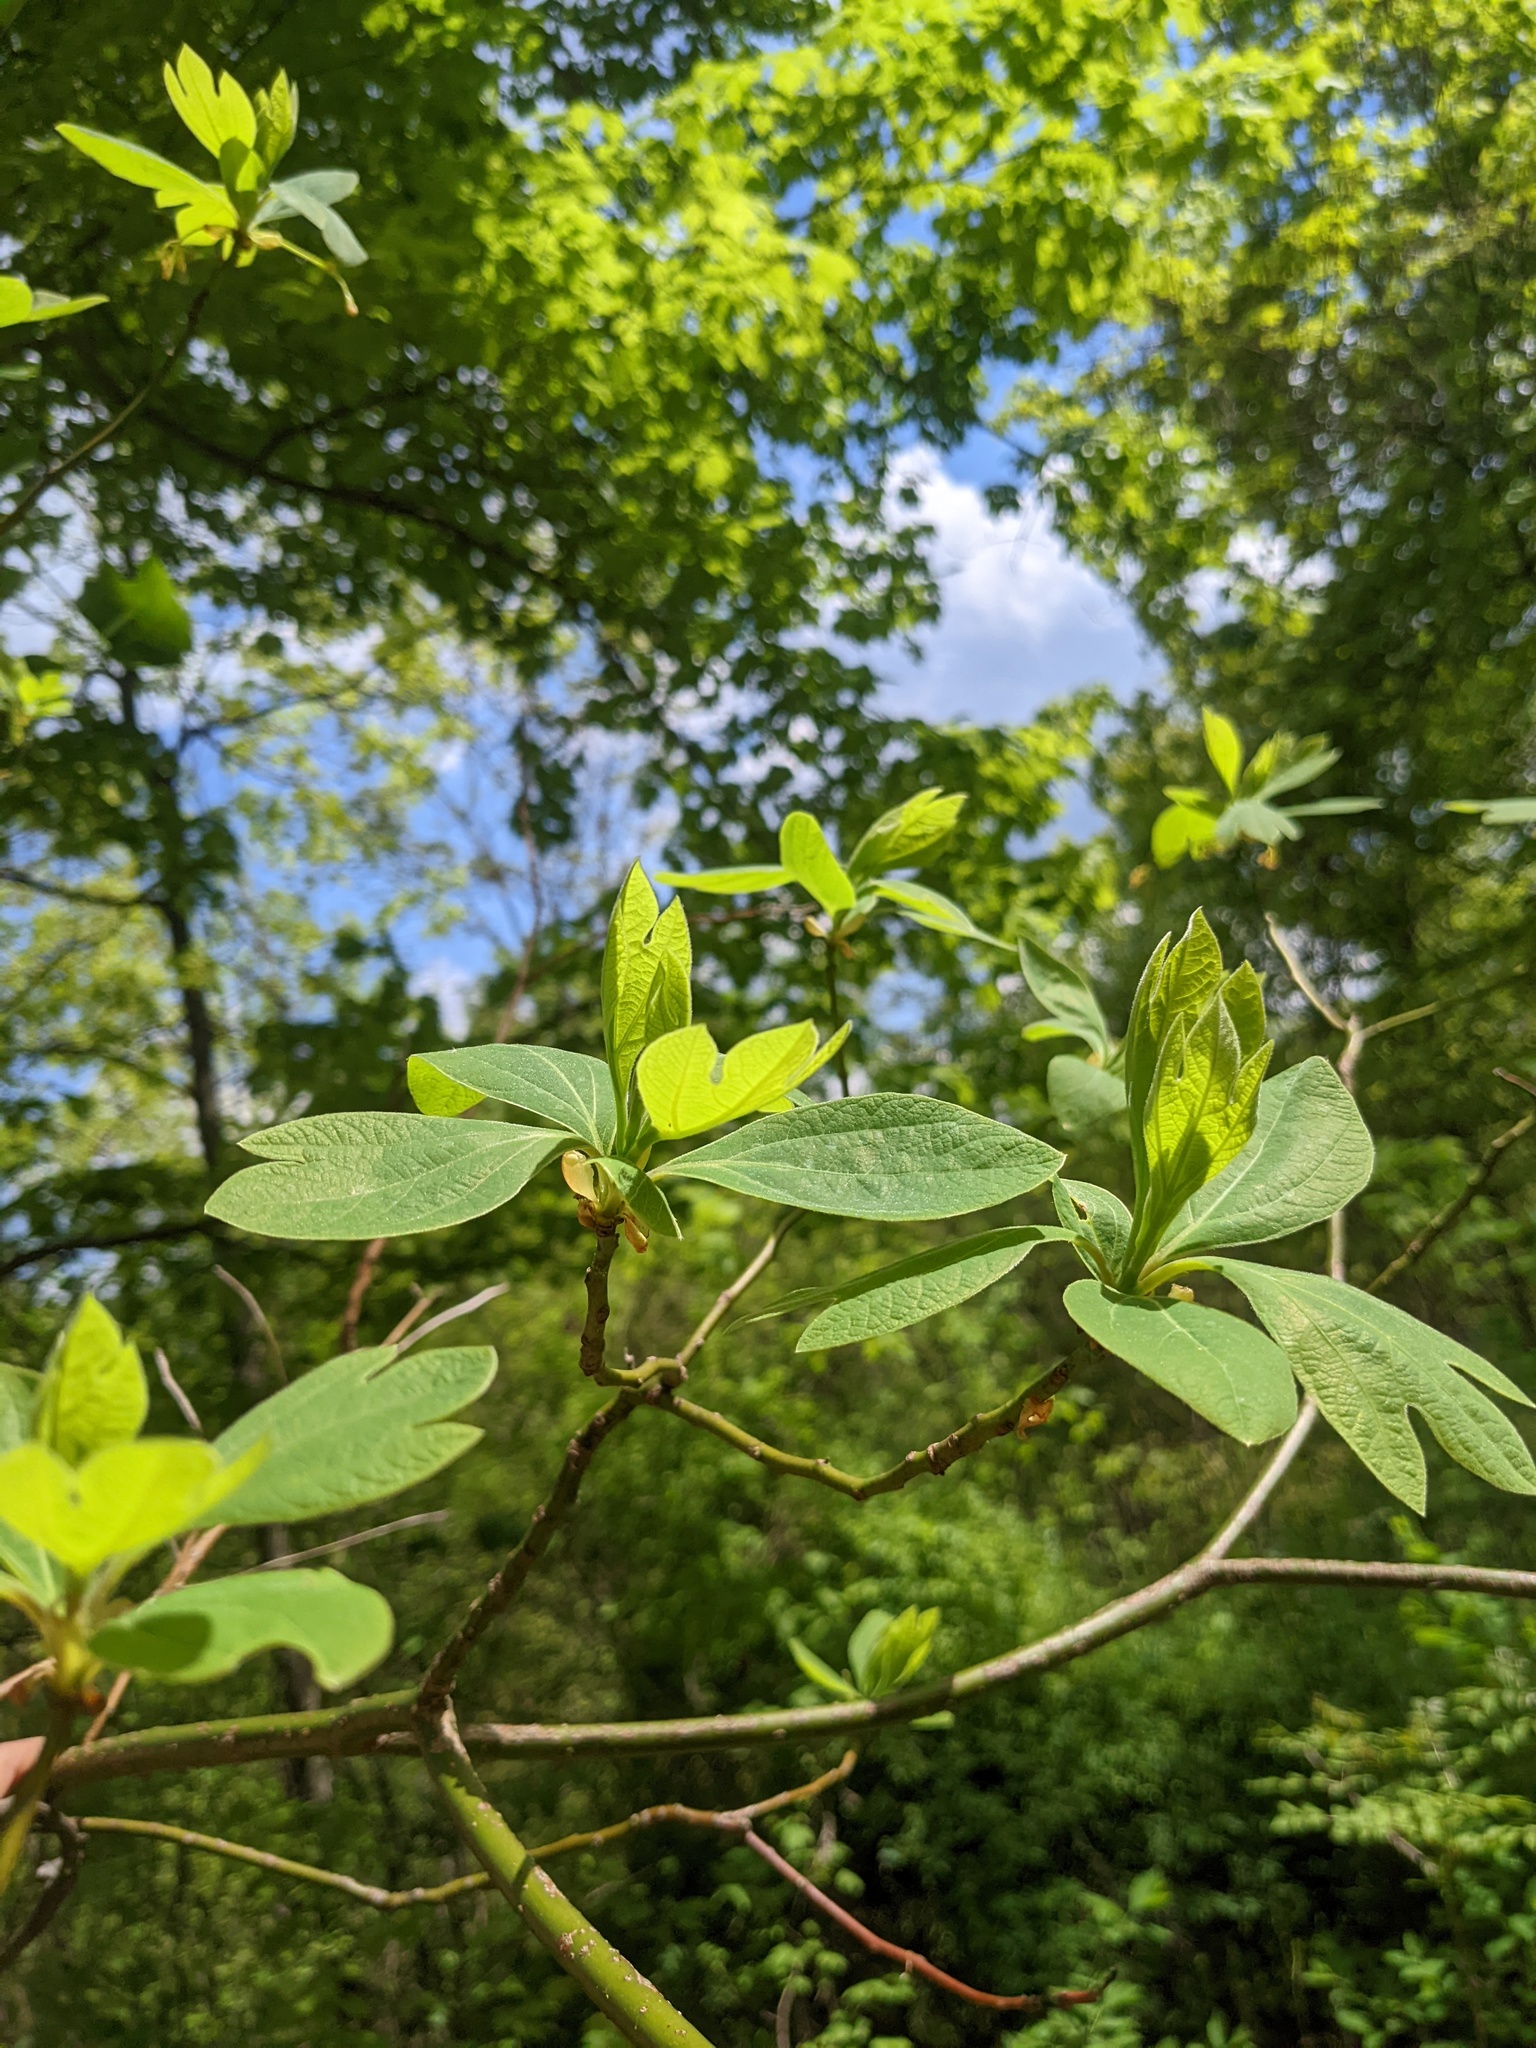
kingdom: Plantae
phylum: Tracheophyta
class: Magnoliopsida
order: Laurales
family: Lauraceae
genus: Sassafras
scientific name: Sassafras albidum
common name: Sassafras
